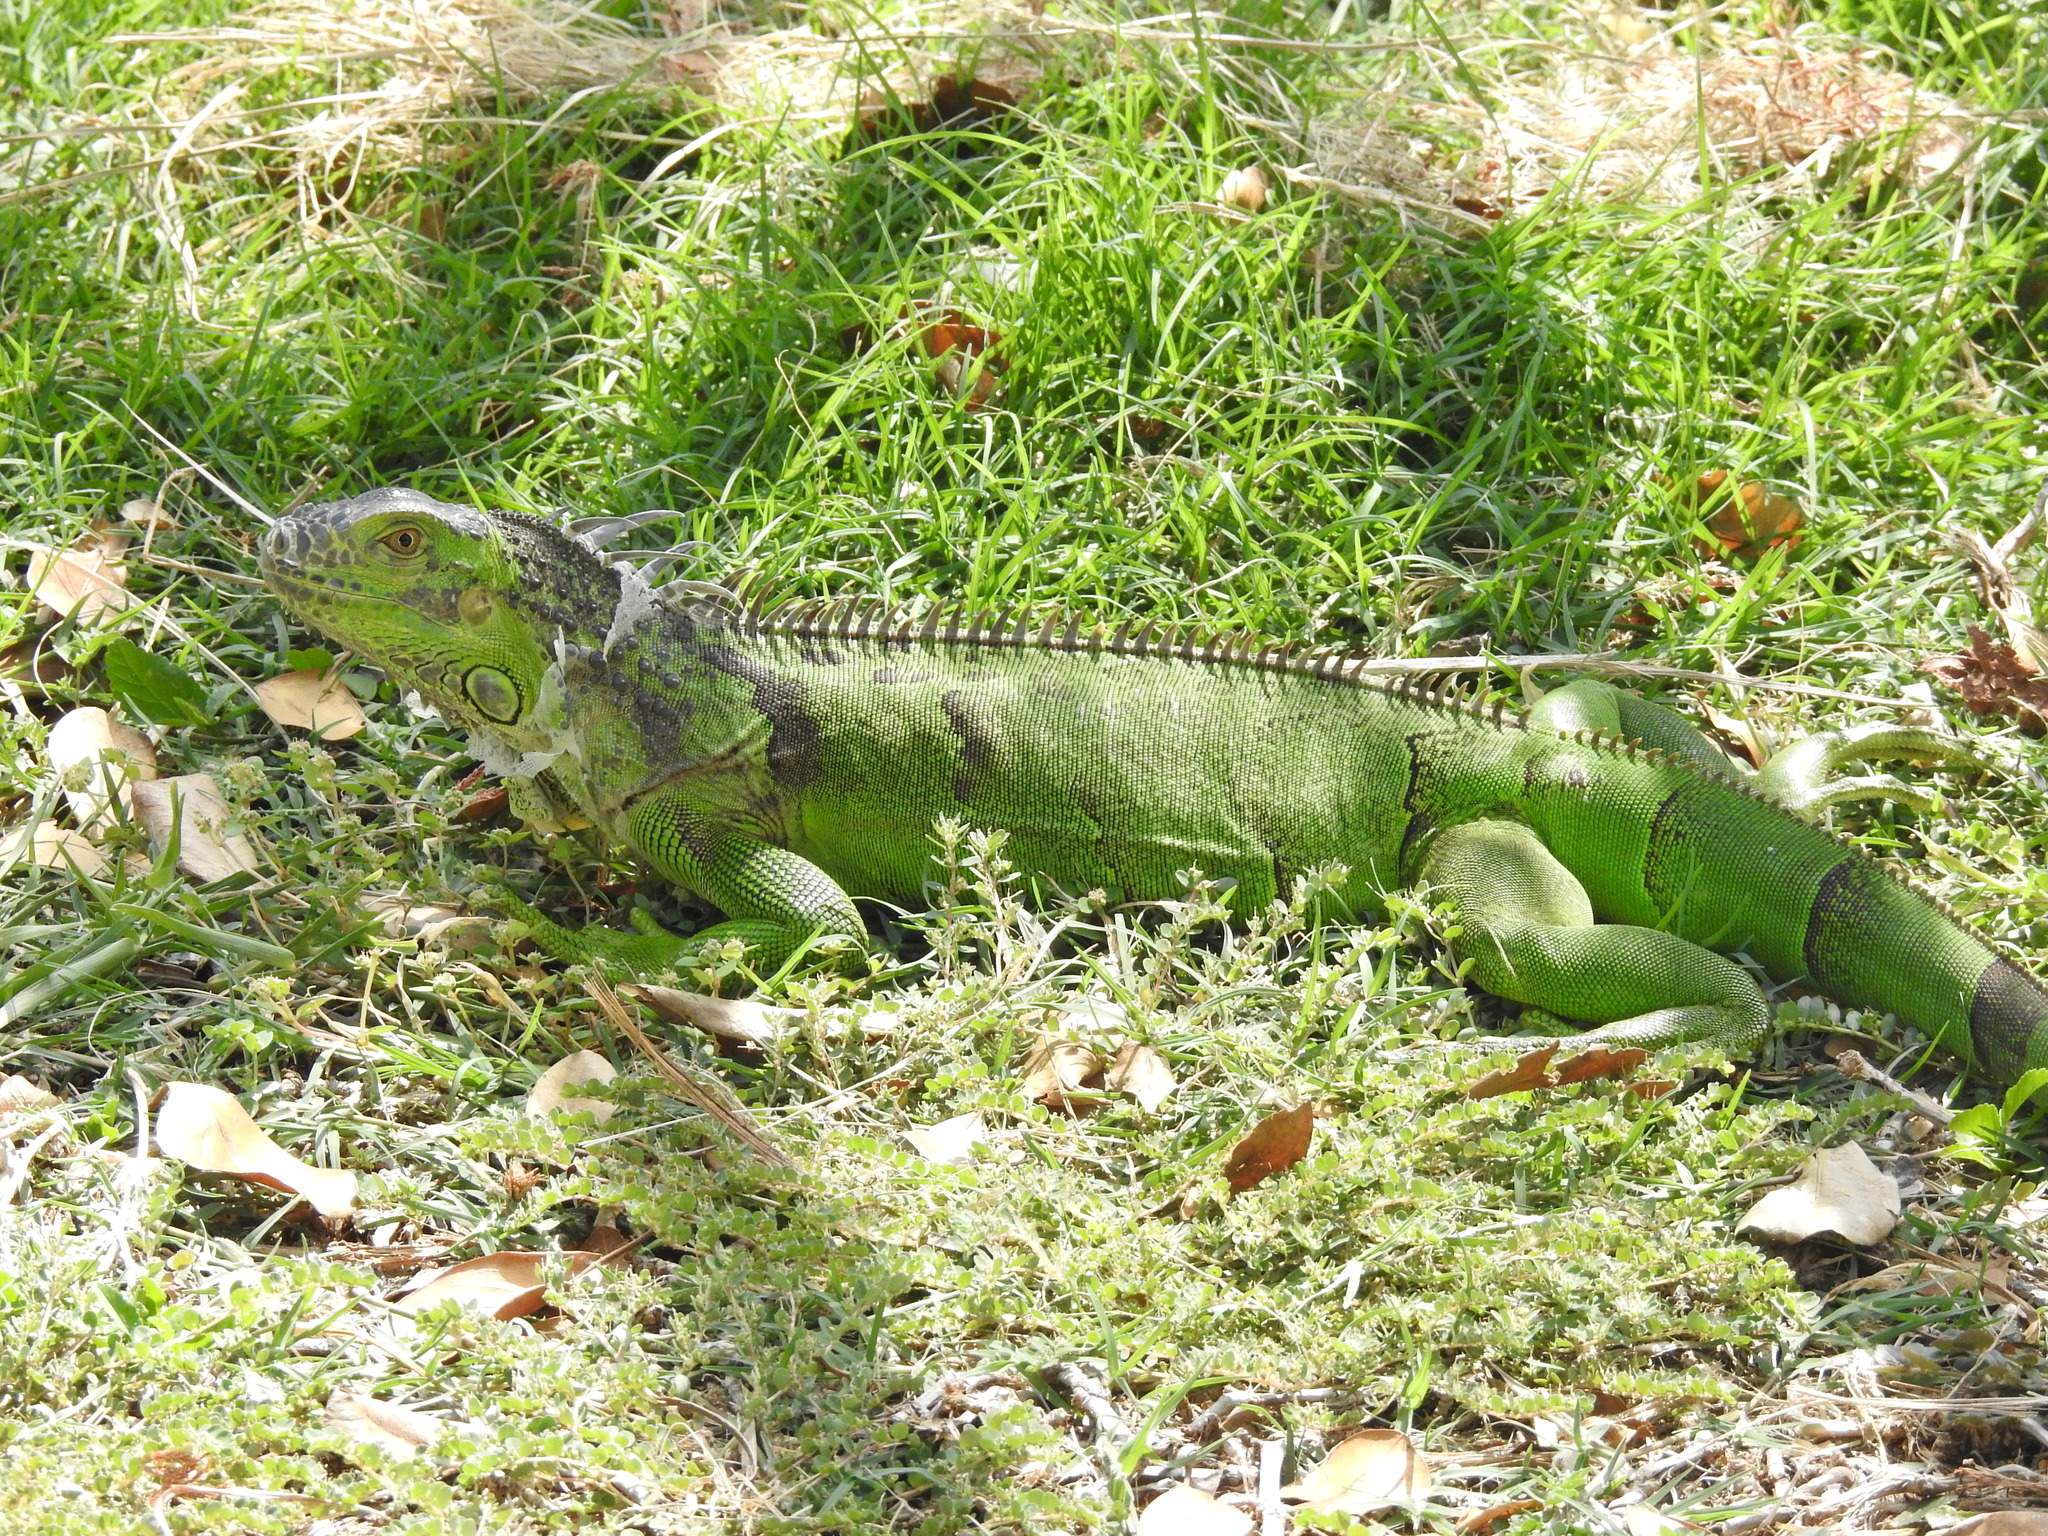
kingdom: Animalia
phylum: Chordata
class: Squamata
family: Iguanidae
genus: Iguana
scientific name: Iguana iguana
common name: Green iguana
